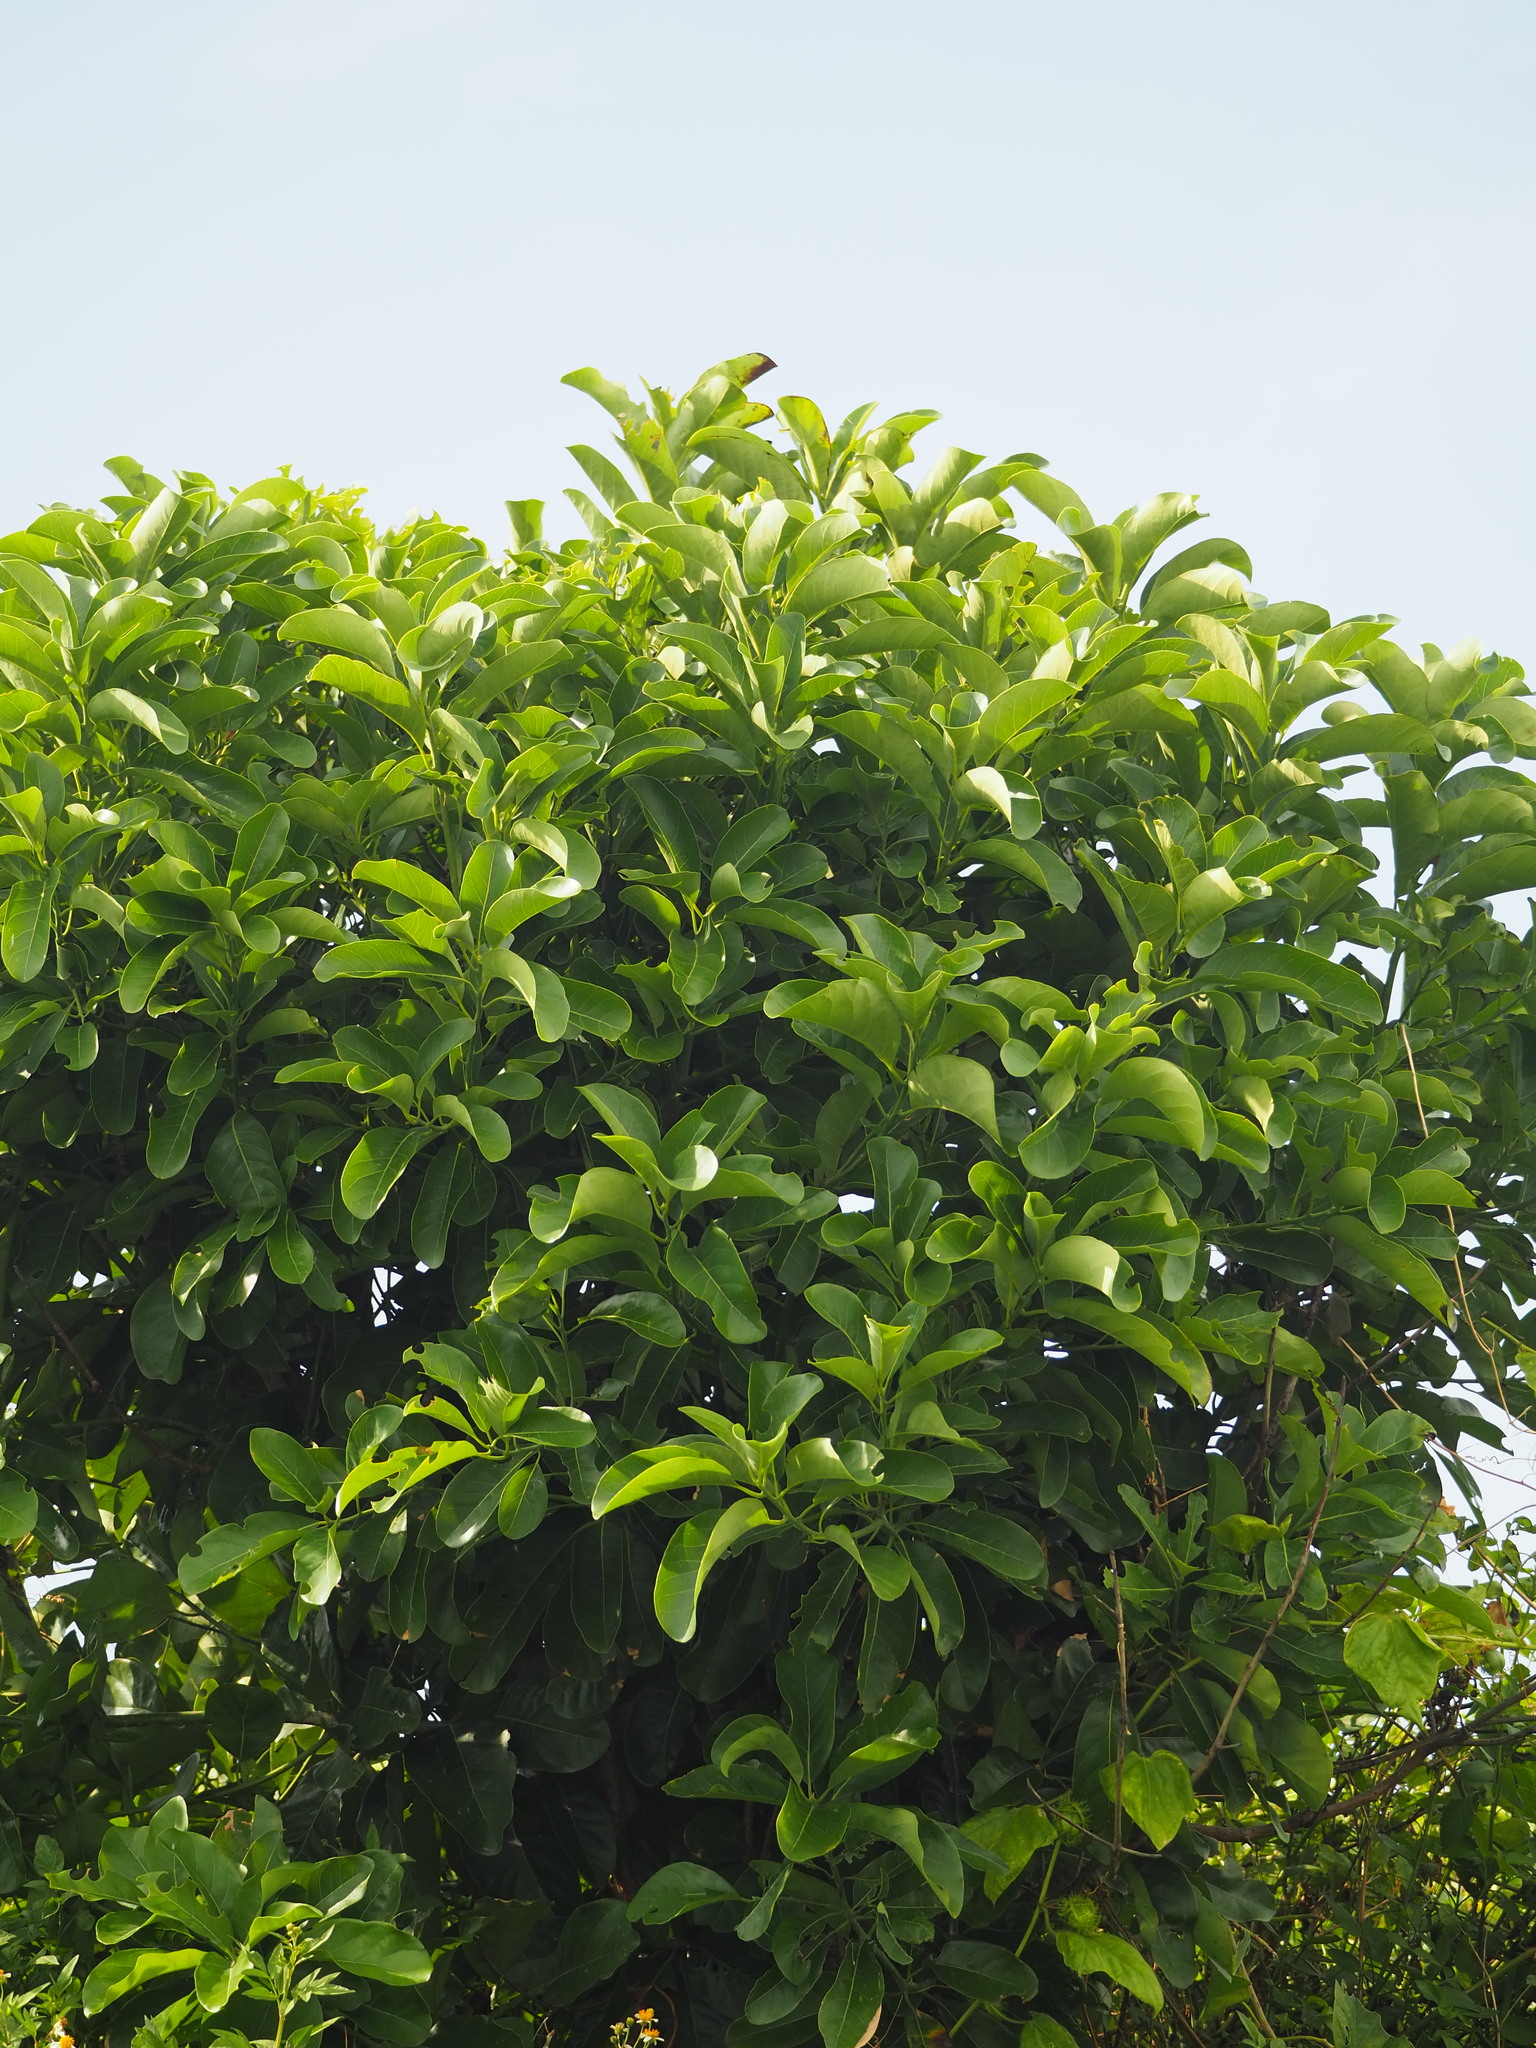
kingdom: Plantae
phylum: Tracheophyta
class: Magnoliopsida
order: Laurales
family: Lauraceae
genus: Litsea
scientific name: Litsea glutinosa
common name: Indian-laurel
